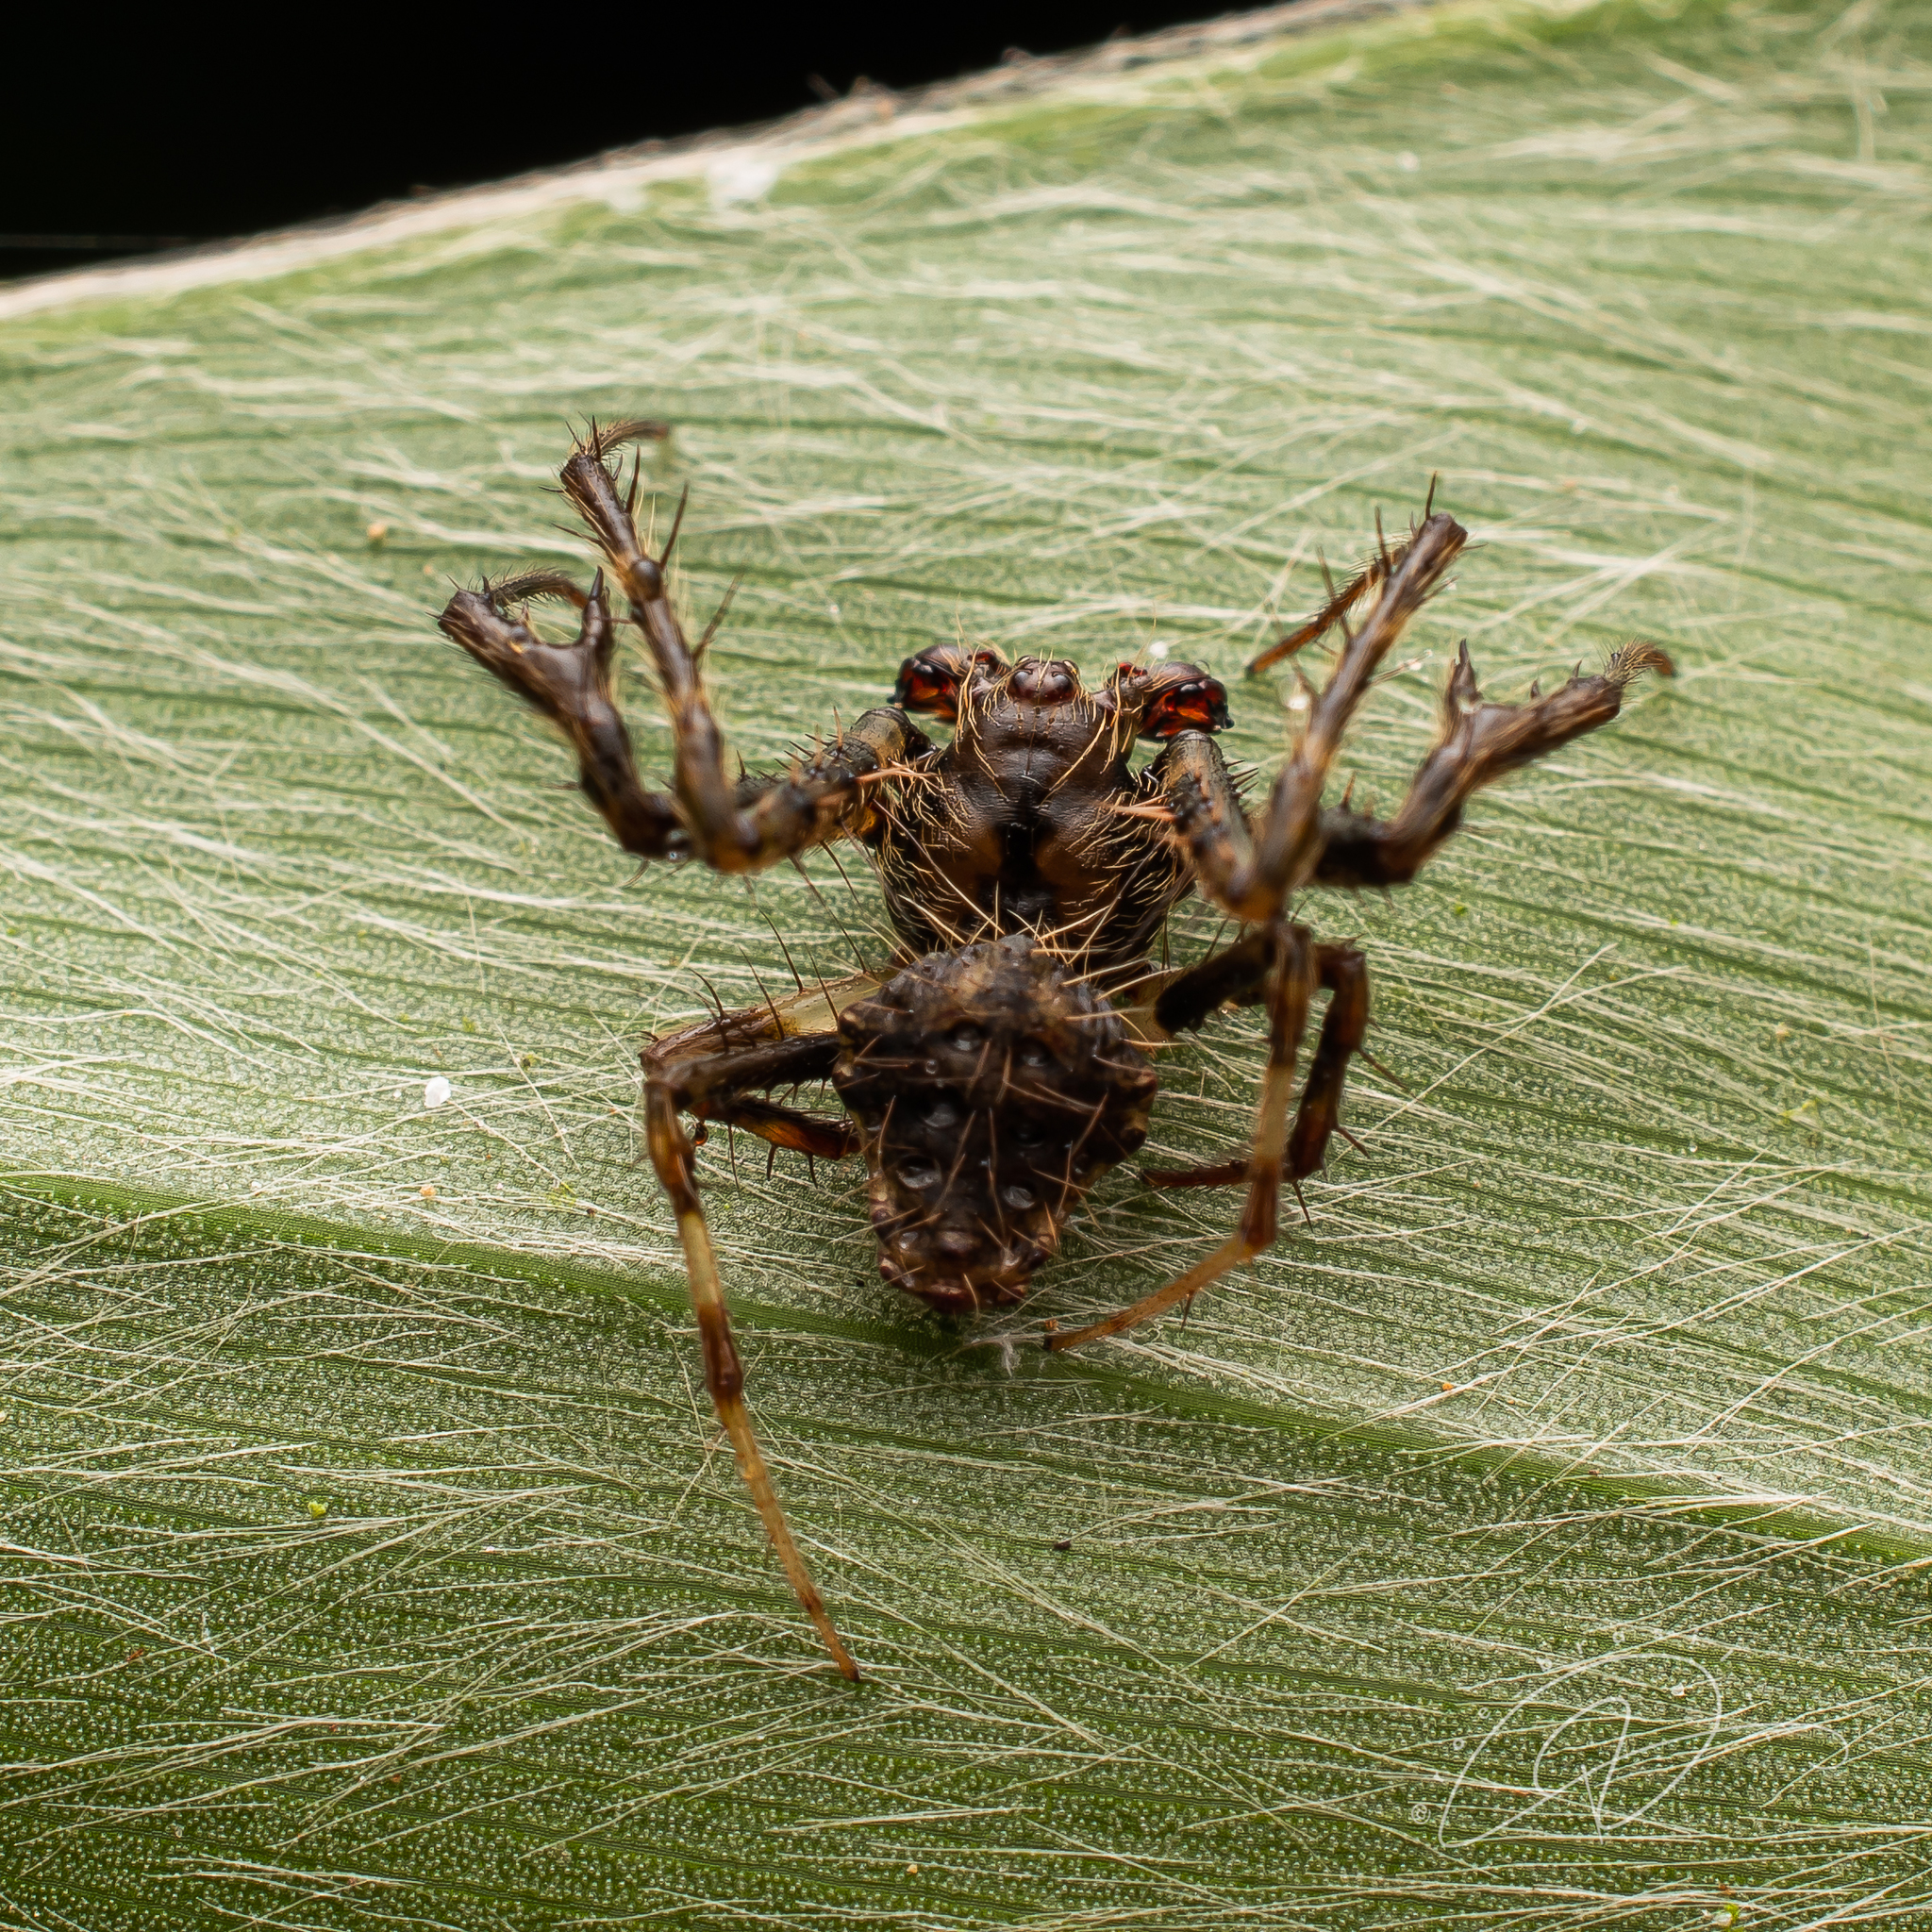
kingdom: Animalia
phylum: Arthropoda
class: Arachnida
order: Araneae
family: Araneidae
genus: Verrucosa
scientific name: Verrucosa scapofracta
